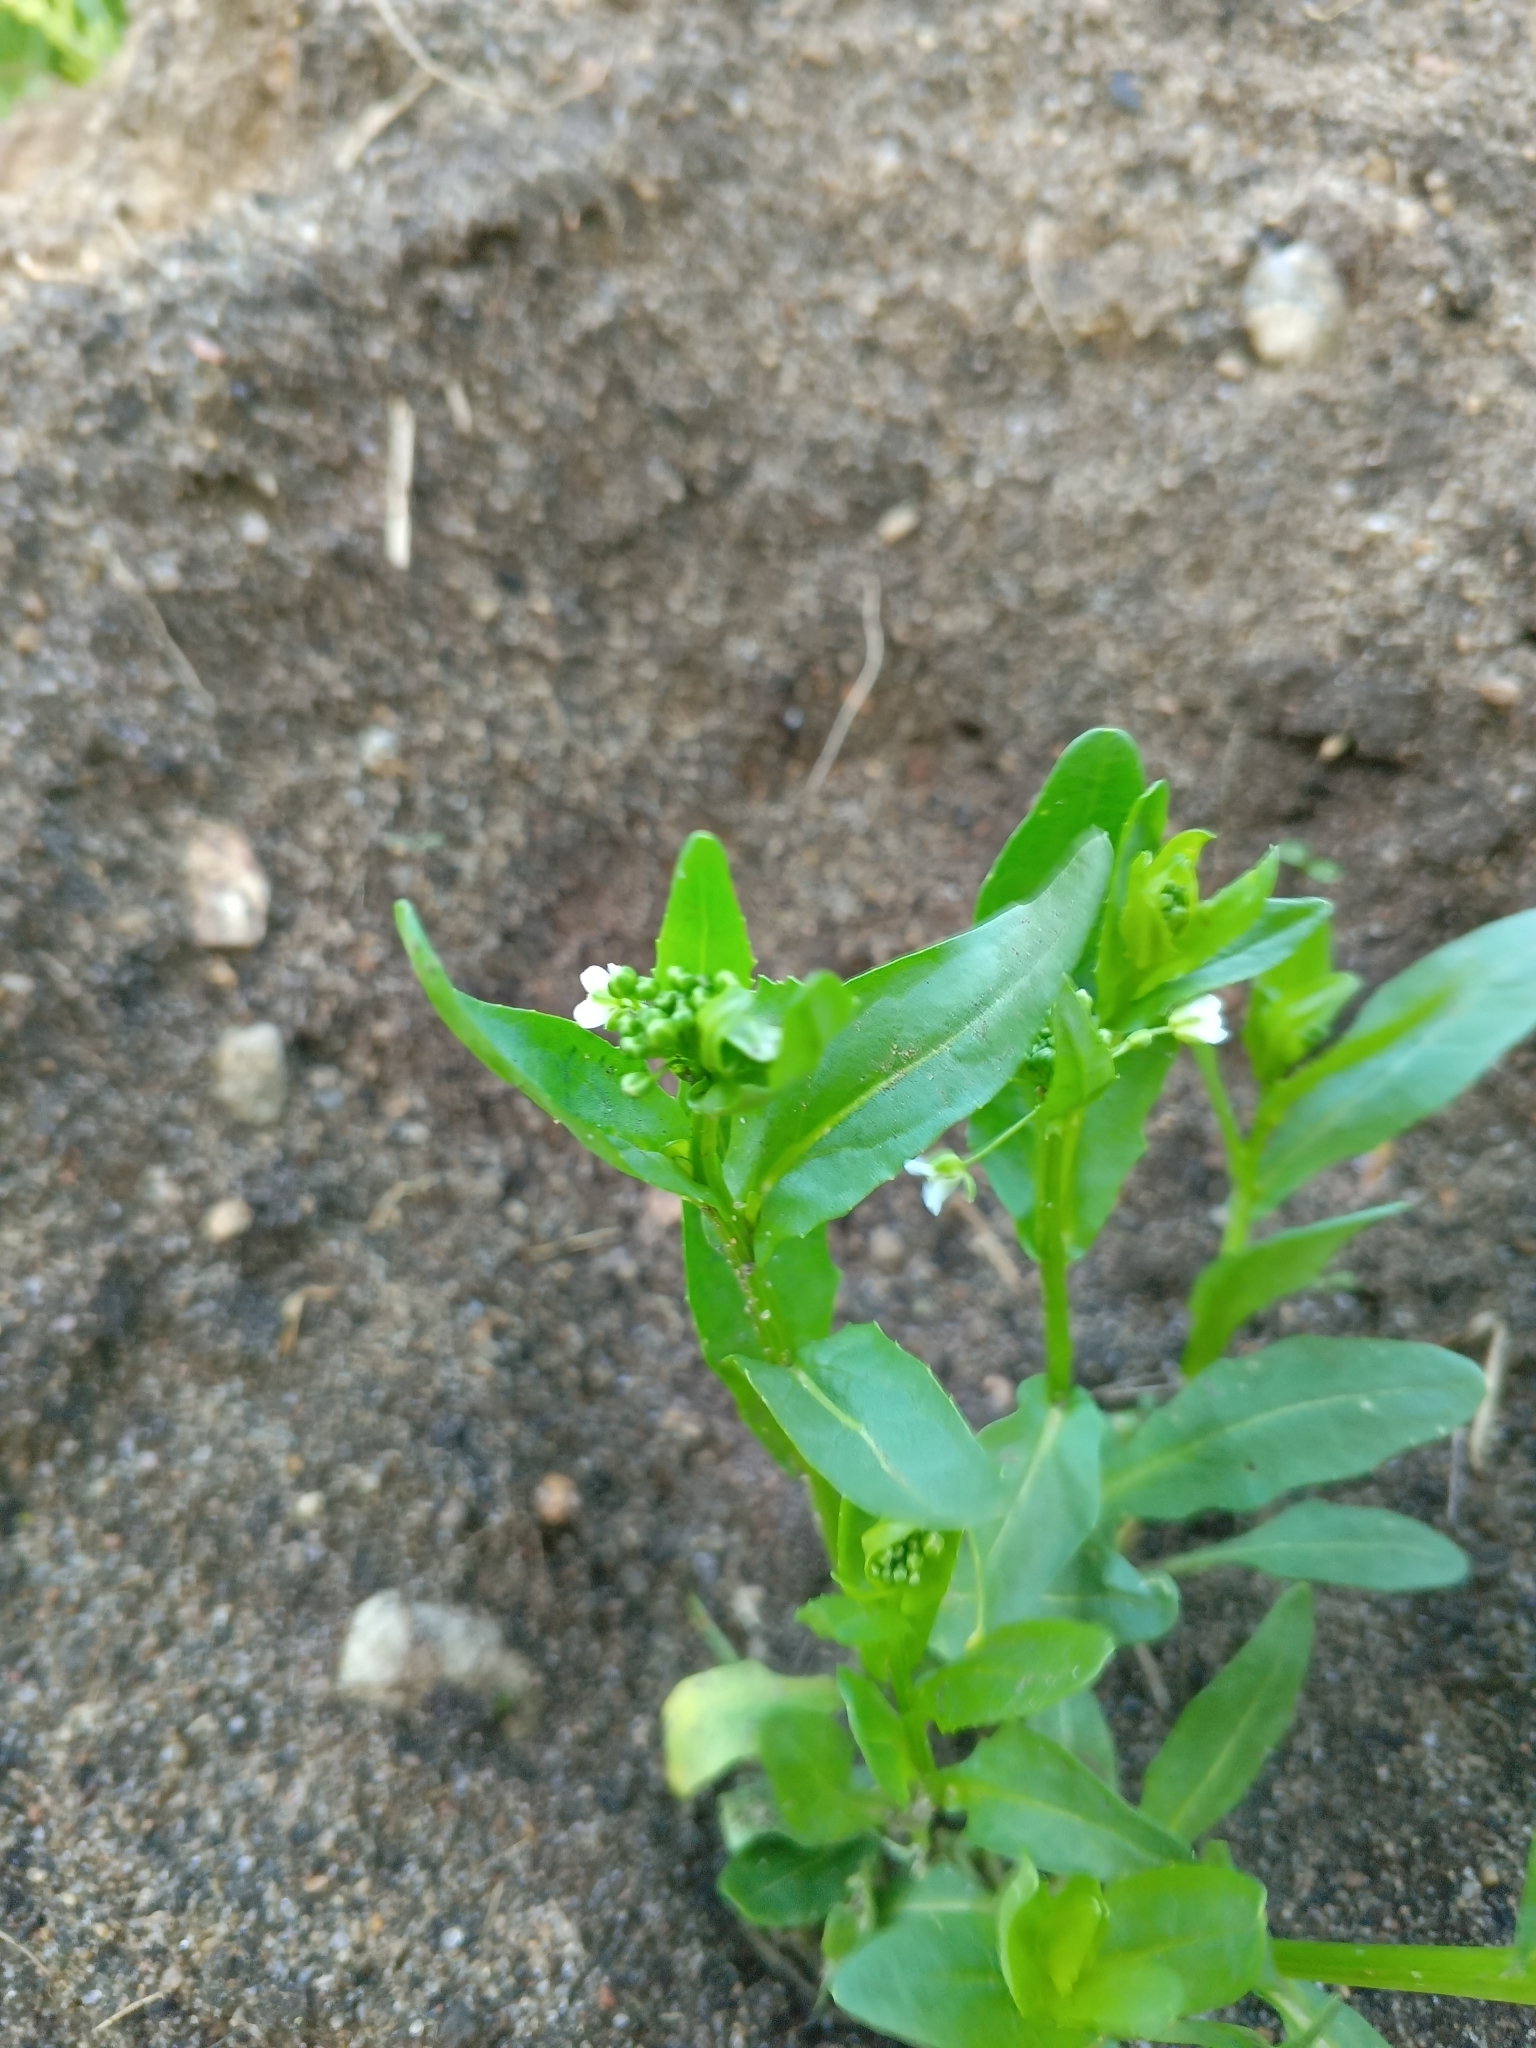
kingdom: Plantae
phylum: Tracheophyta
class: Magnoliopsida
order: Brassicales
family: Brassicaceae
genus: Thlaspi
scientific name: Thlaspi arvense
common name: Field pennycress
